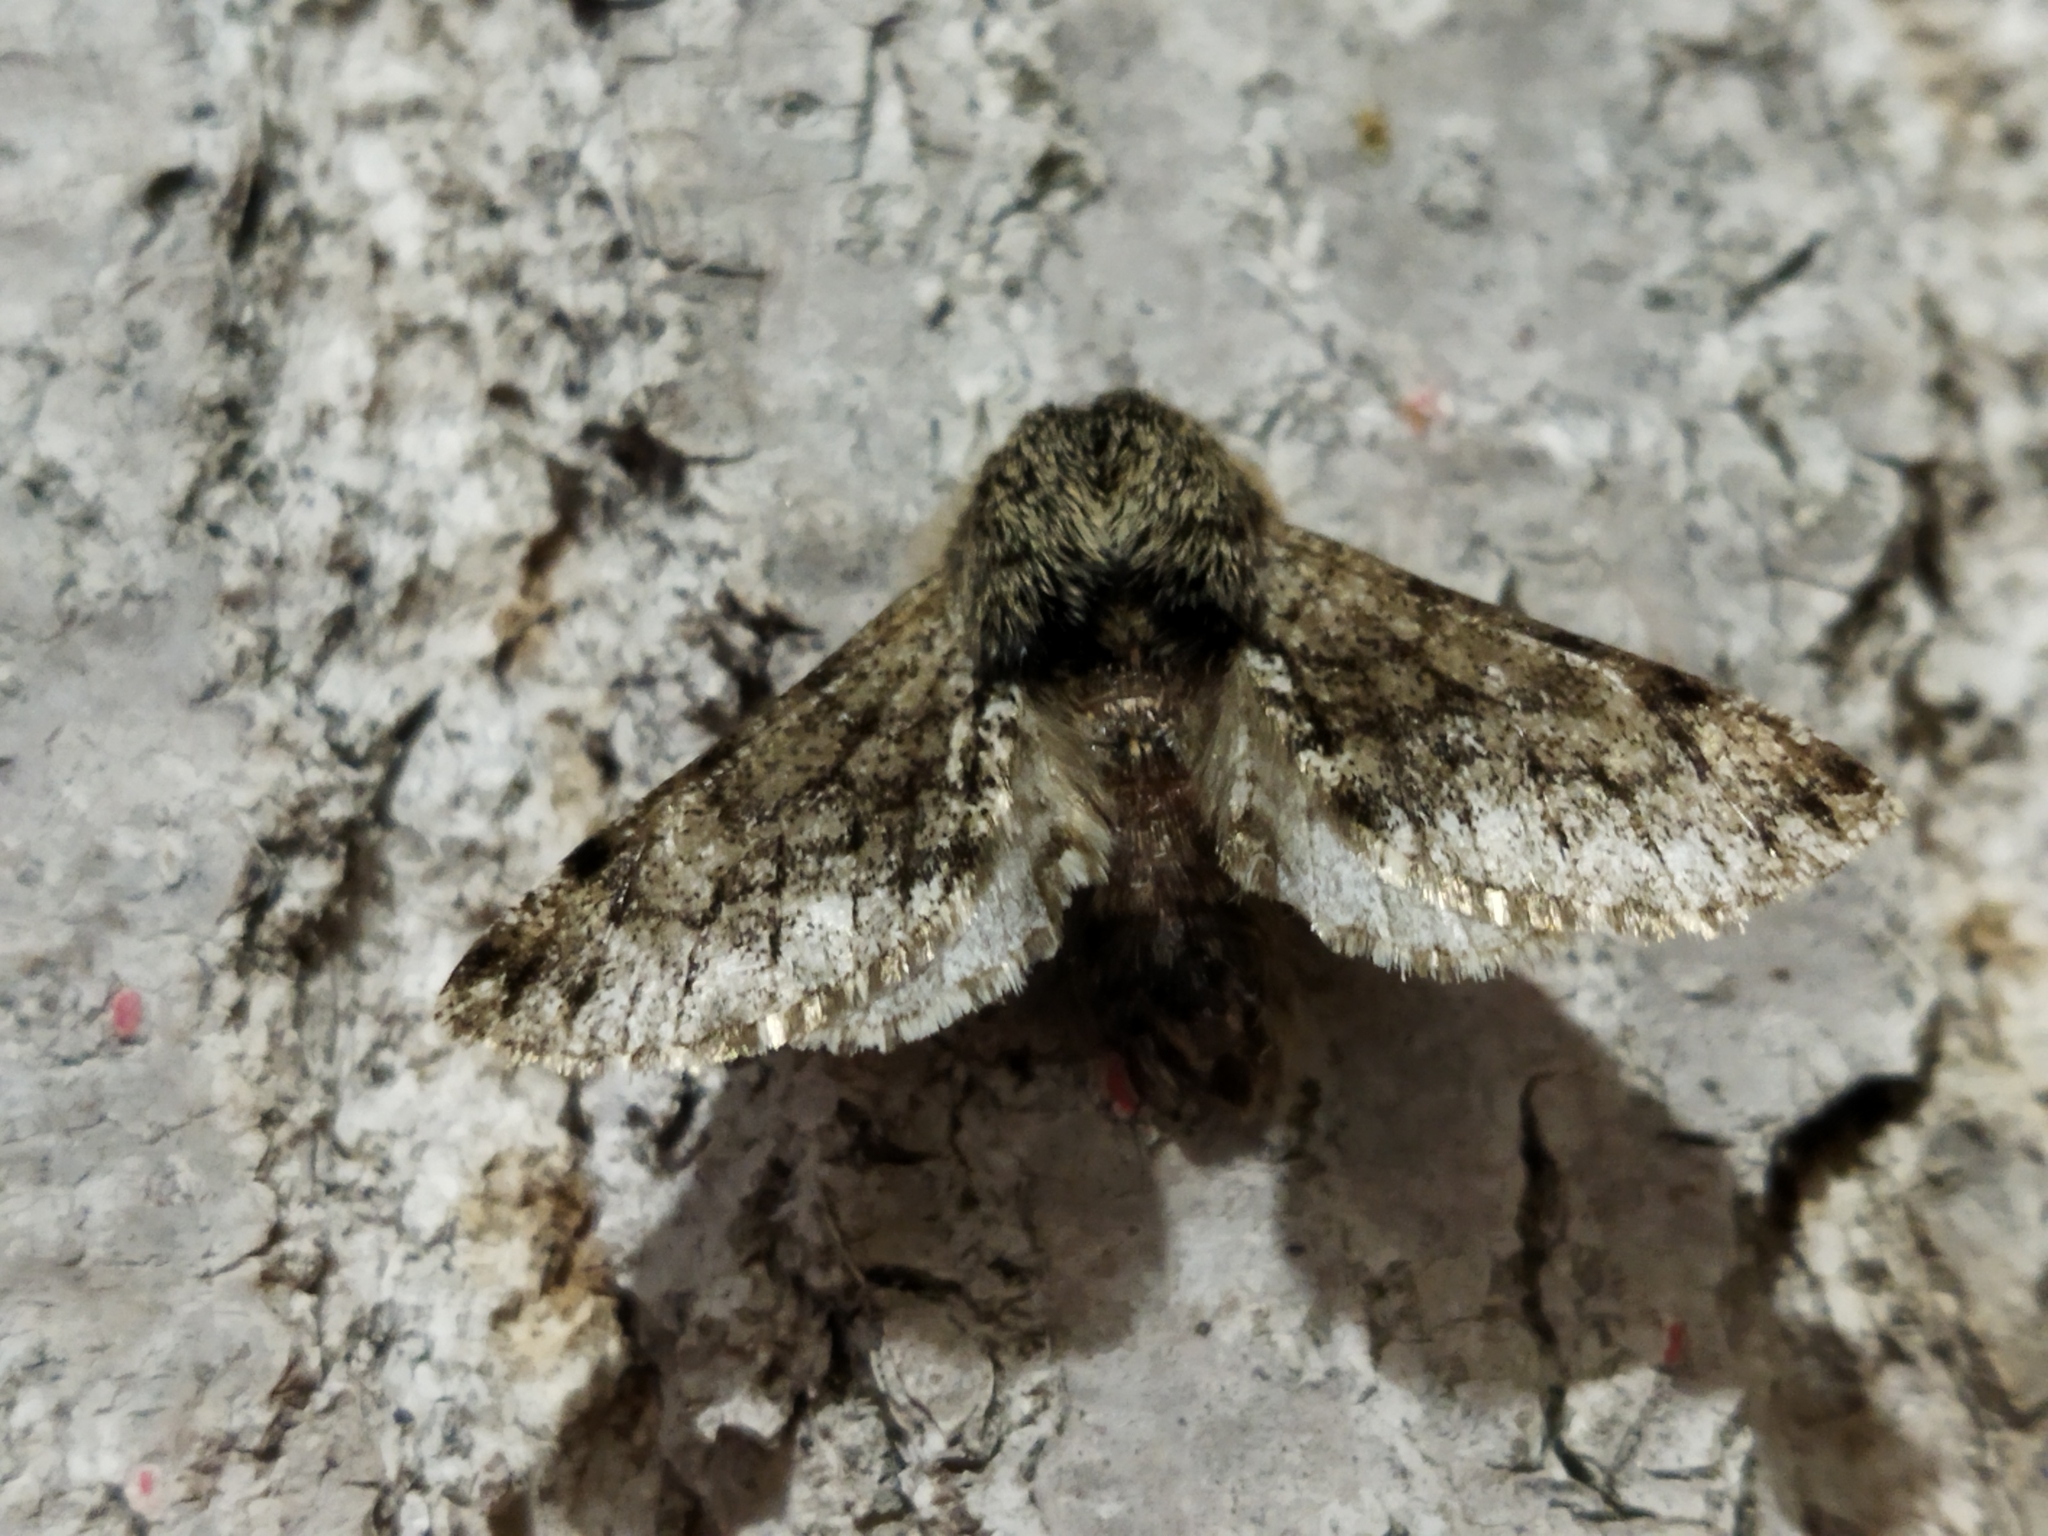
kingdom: Animalia
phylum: Arthropoda
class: Insecta
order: Lepidoptera
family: Geometridae
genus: Apocheima
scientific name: Apocheima hispidaria
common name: Small brindled beauty
